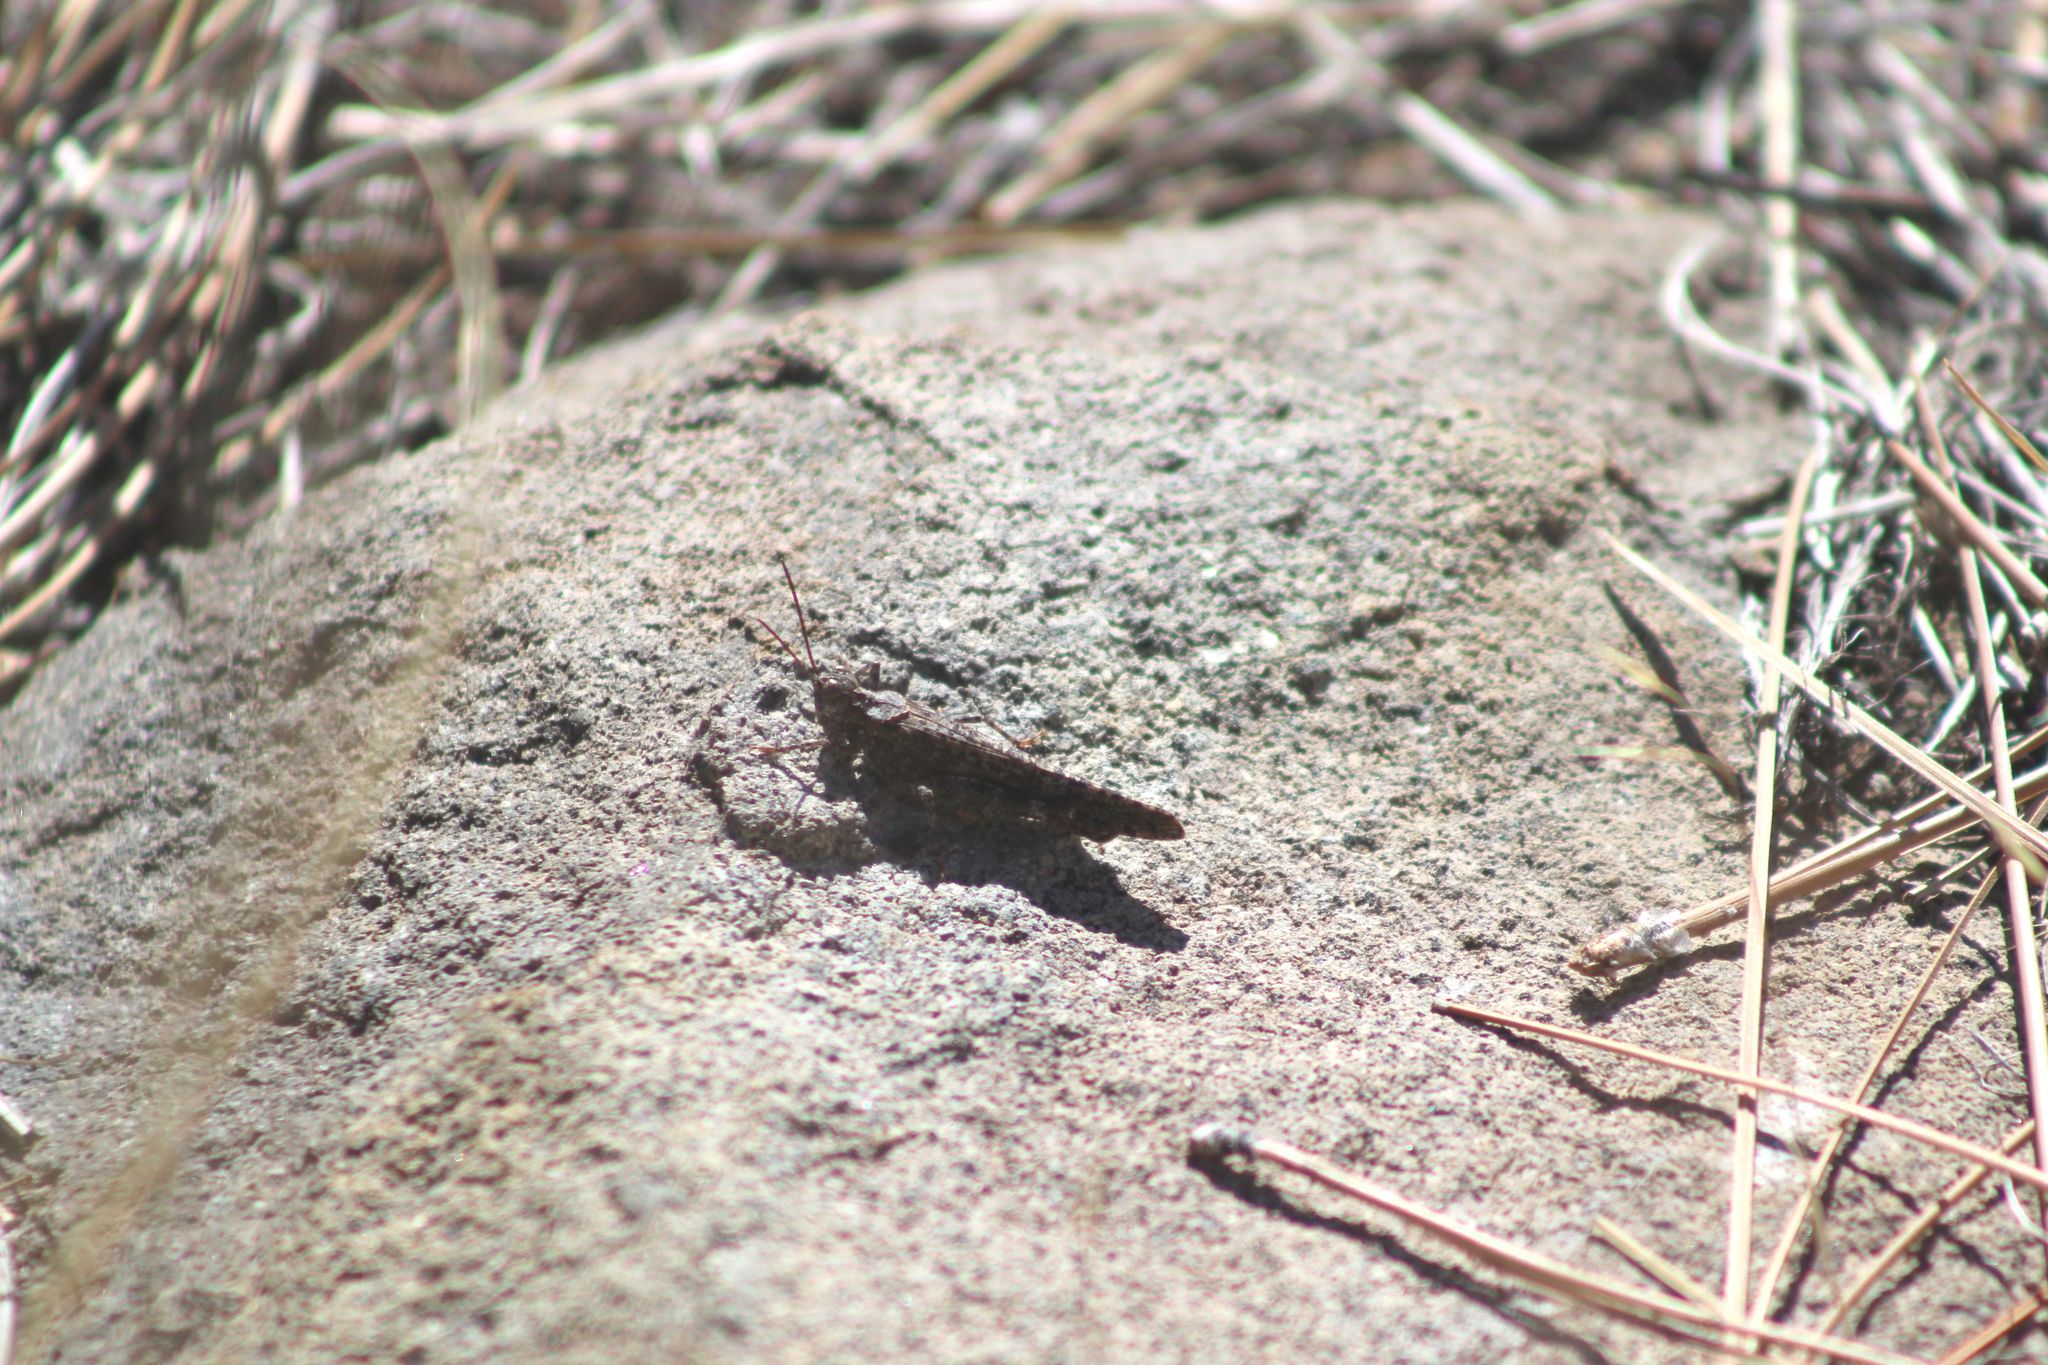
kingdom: Animalia
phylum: Arthropoda
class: Insecta
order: Orthoptera
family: Acrididae
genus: Trimerotropis
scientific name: Trimerotropis verruculata
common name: Crackling forest grasshopper
